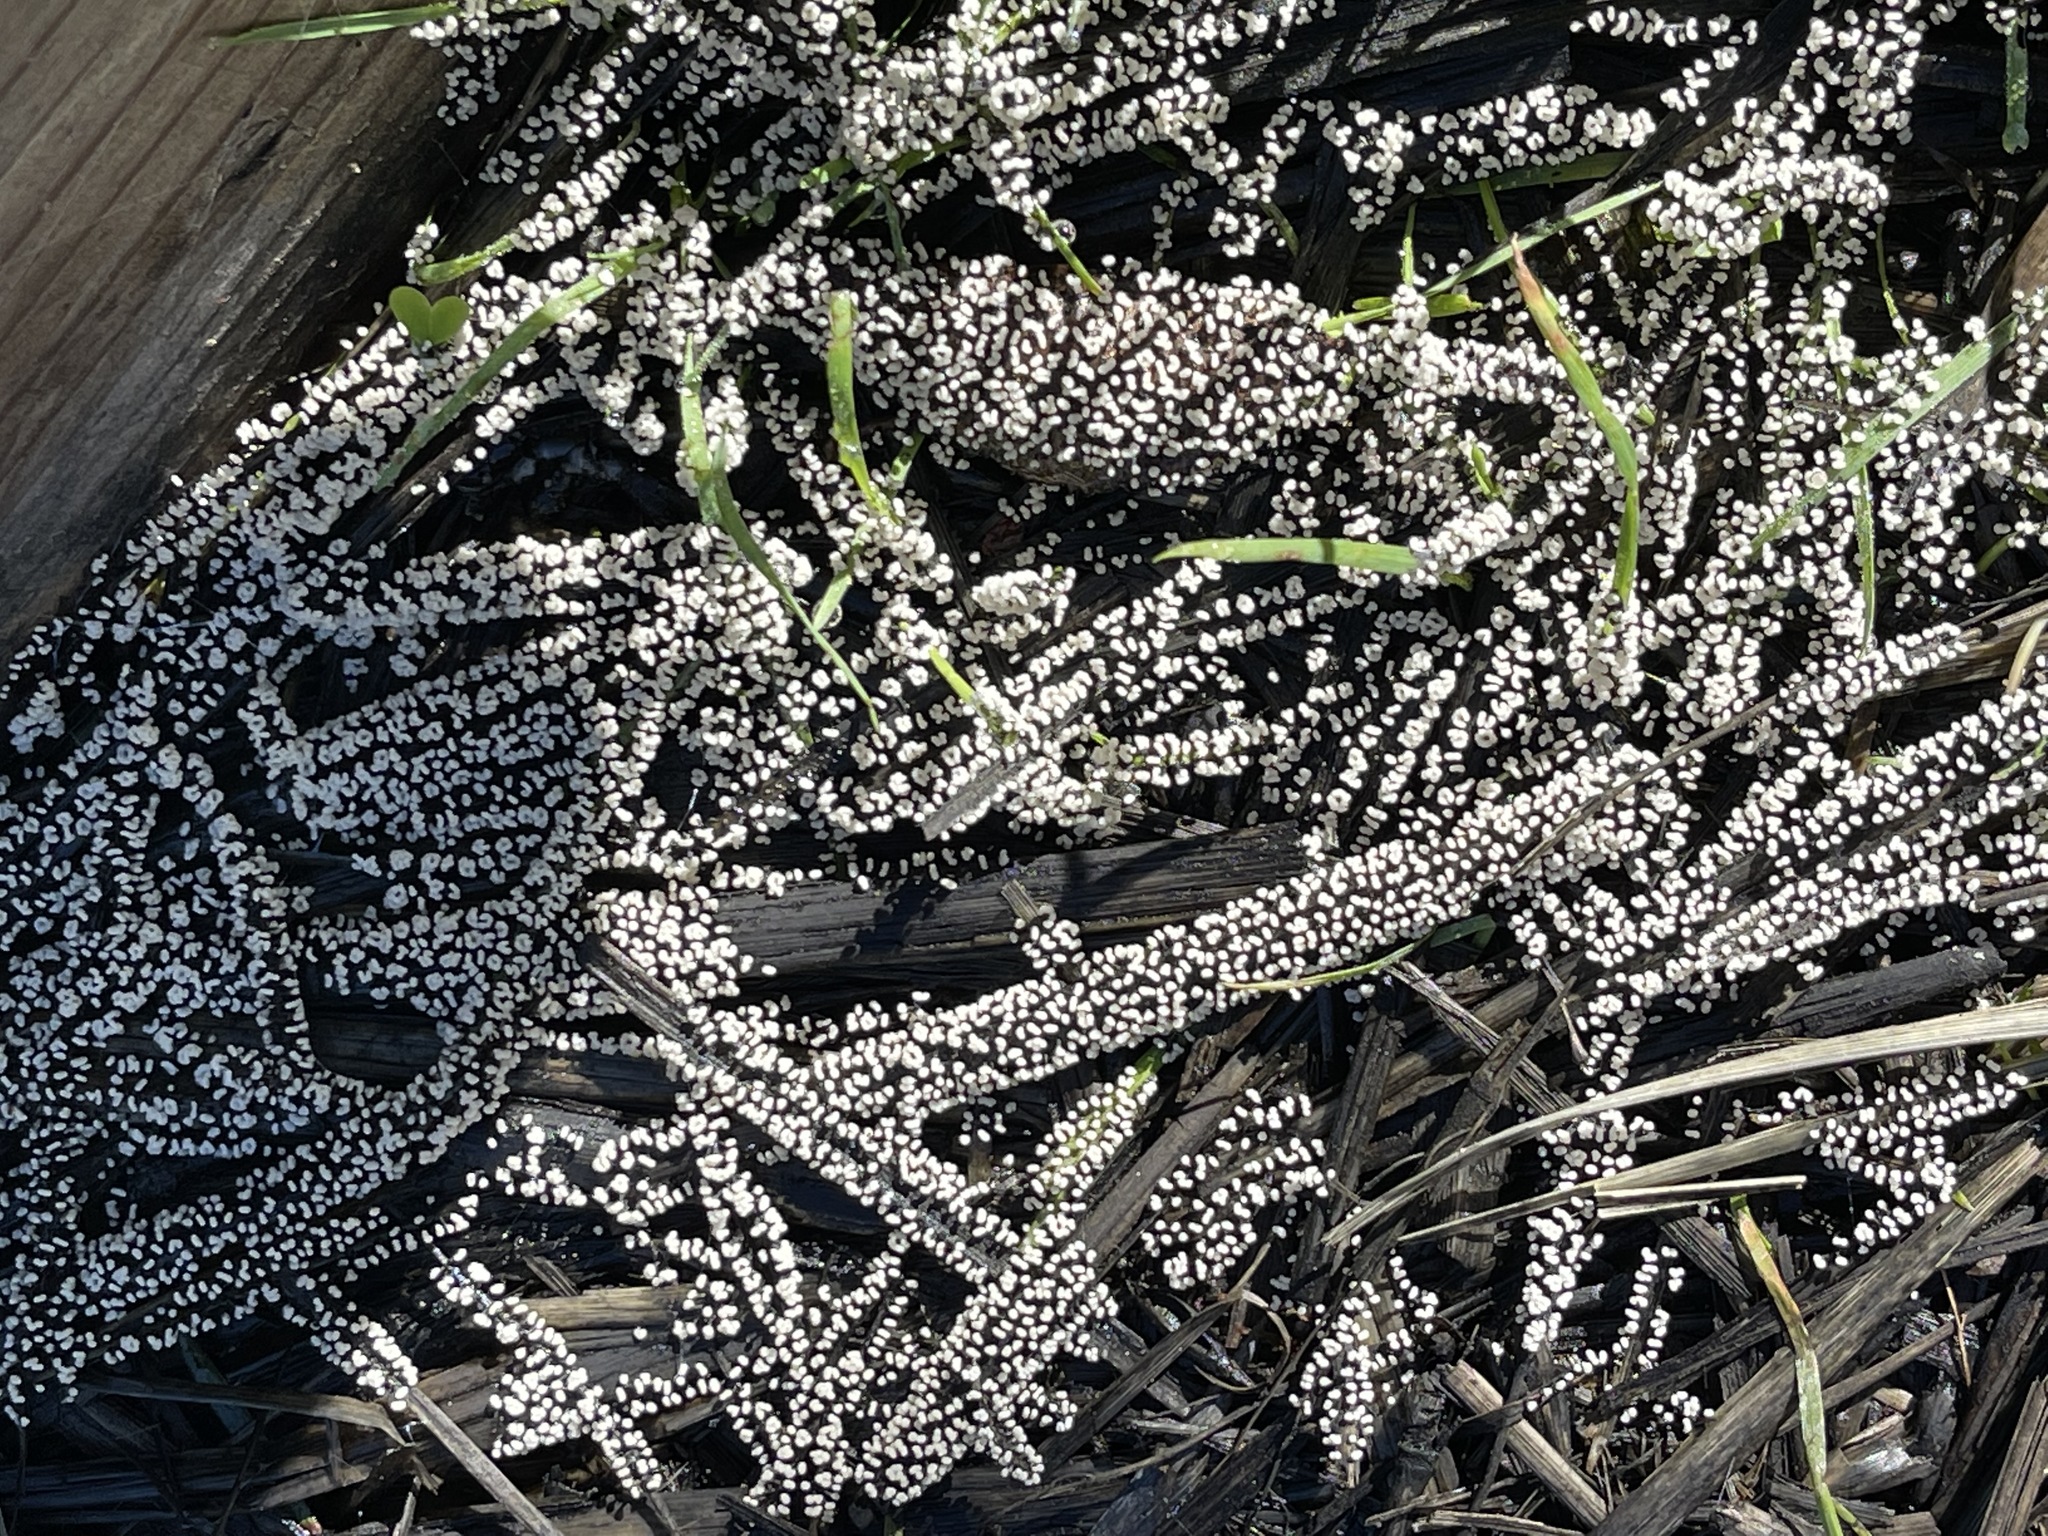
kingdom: Protozoa
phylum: Mycetozoa
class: Myxomycetes
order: Physarales
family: Didymiaceae
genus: Diachea
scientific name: Diachea leucopodia
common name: White-footed slime
